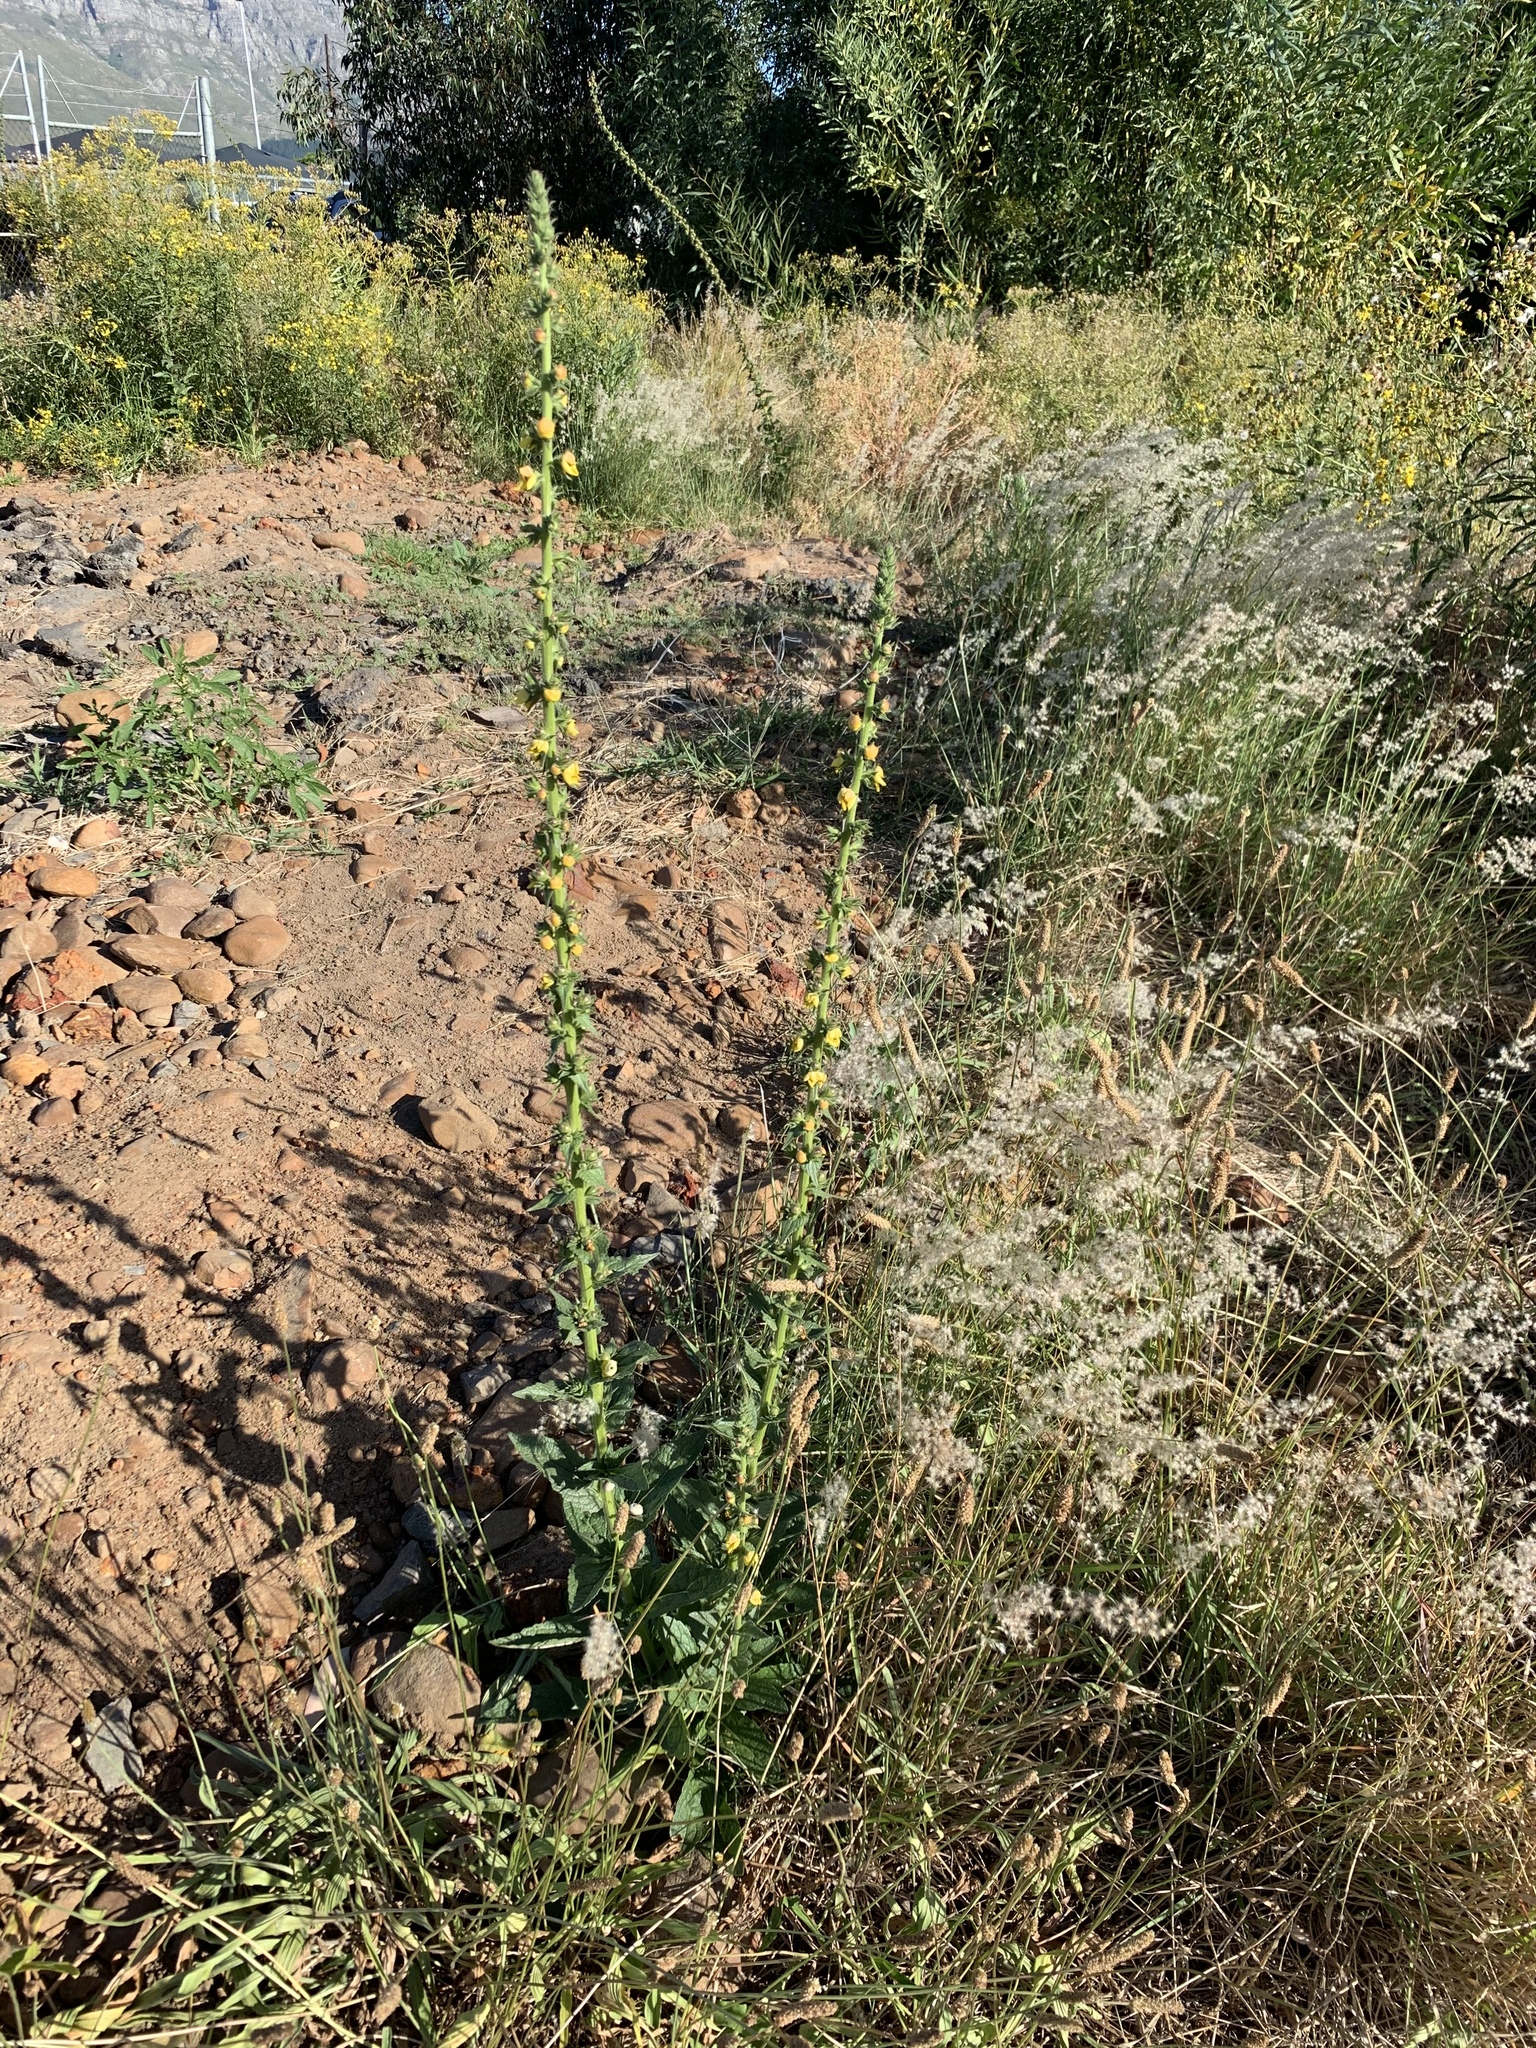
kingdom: Plantae
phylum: Tracheophyta
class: Magnoliopsida
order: Lamiales
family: Scrophulariaceae
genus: Verbascum
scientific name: Verbascum virgatum
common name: Twiggy mullein
